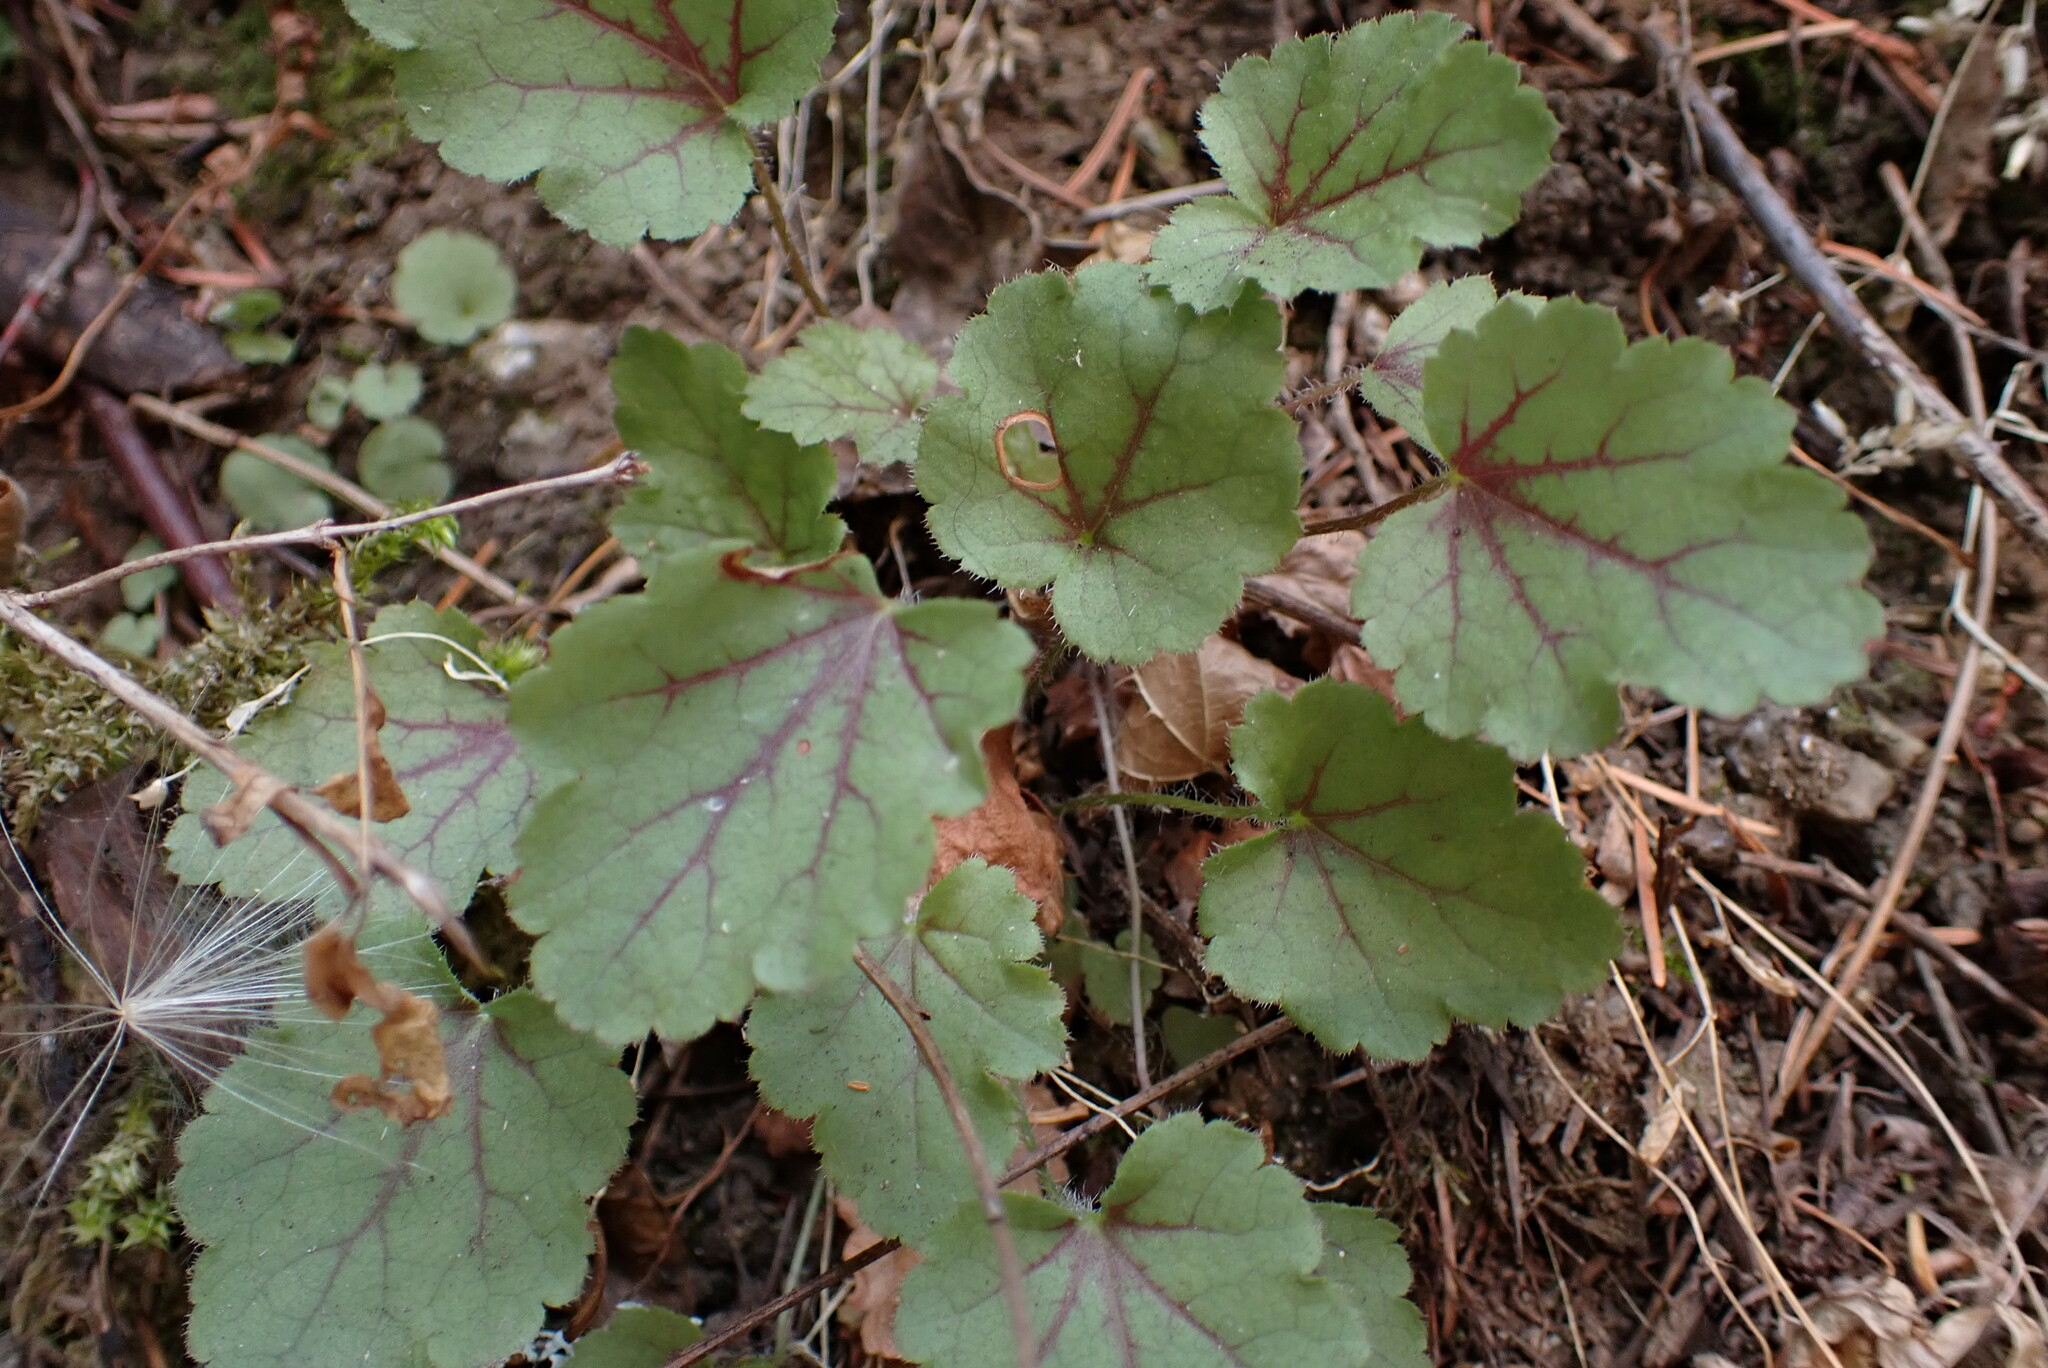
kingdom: Plantae
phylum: Tracheophyta
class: Magnoliopsida
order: Saxifragales
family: Saxifragaceae
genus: Heuchera
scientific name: Heuchera micrantha
